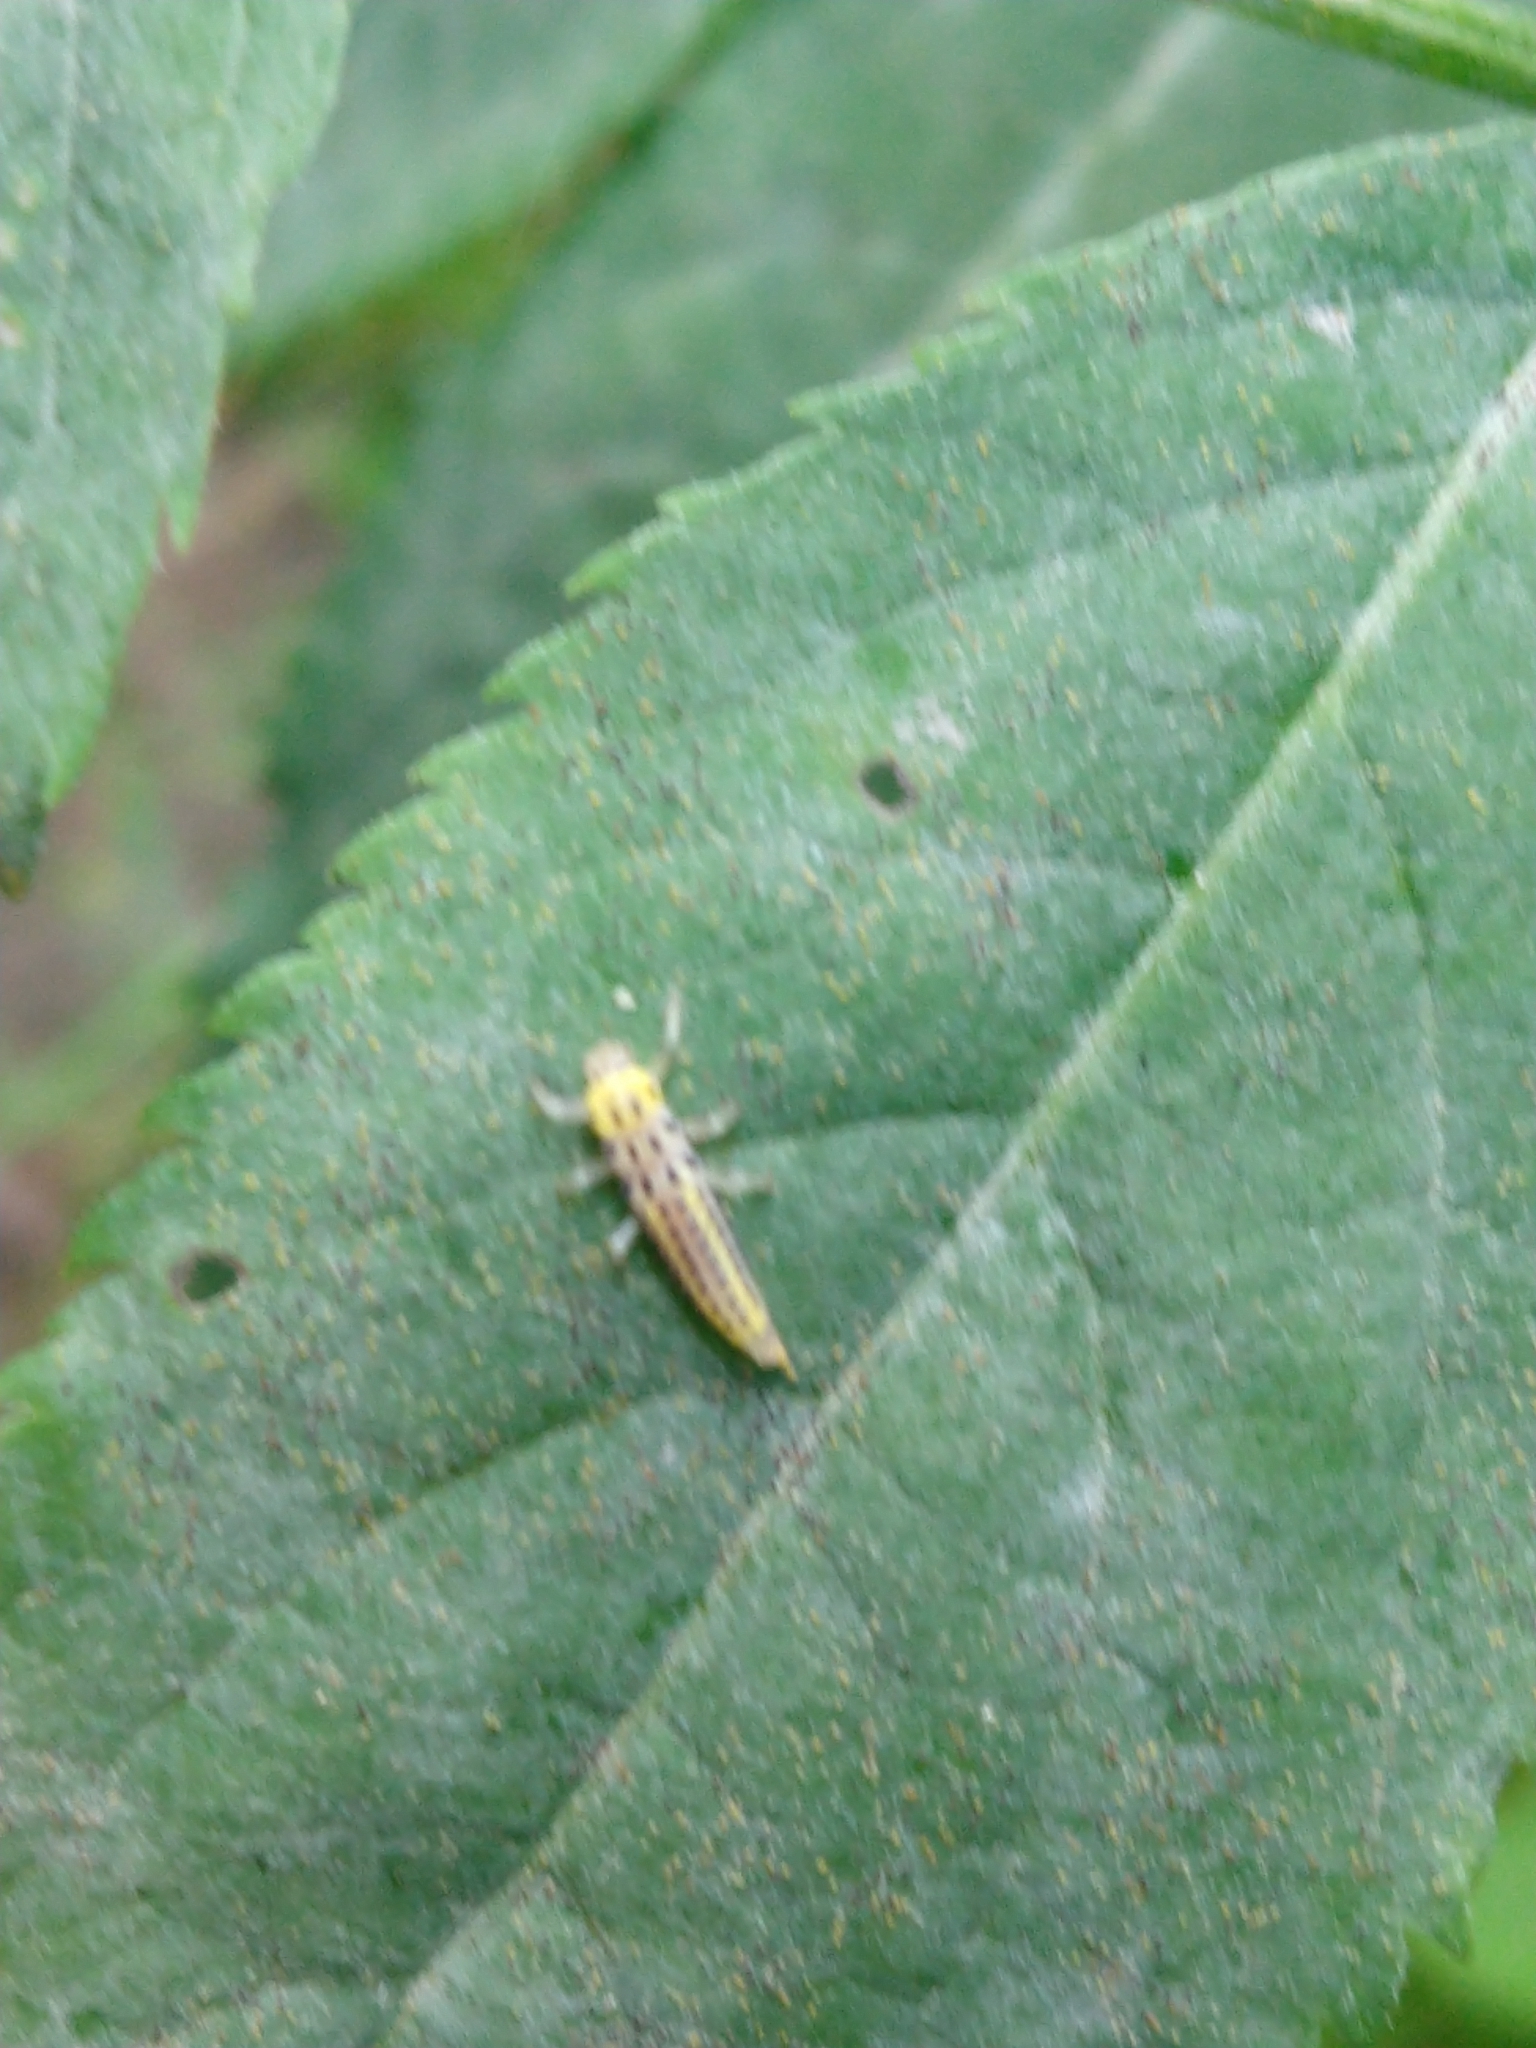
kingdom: Animalia
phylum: Arthropoda
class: Insecta
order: Coleoptera
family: Coccinellidae
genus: Halyzia
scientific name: Halyzia sedecimguttata
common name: Orange ladybird
